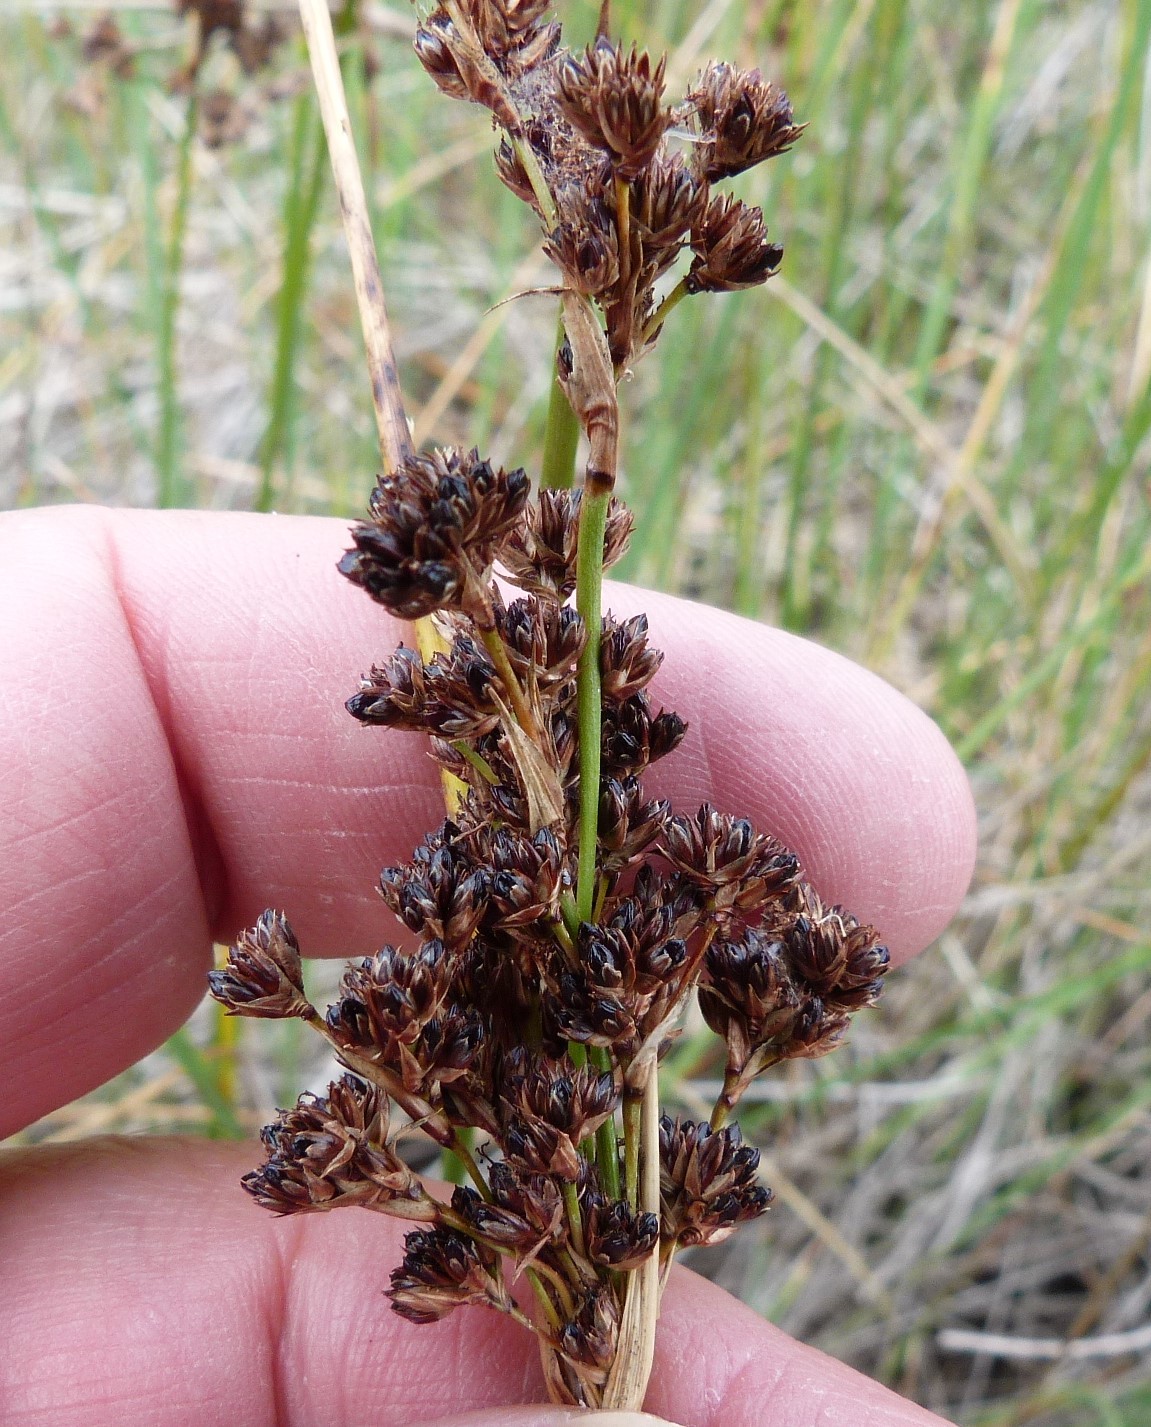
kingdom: Plantae
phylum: Tracheophyta
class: Liliopsida
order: Poales
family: Juncaceae
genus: Juncus
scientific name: Juncus kraussii
